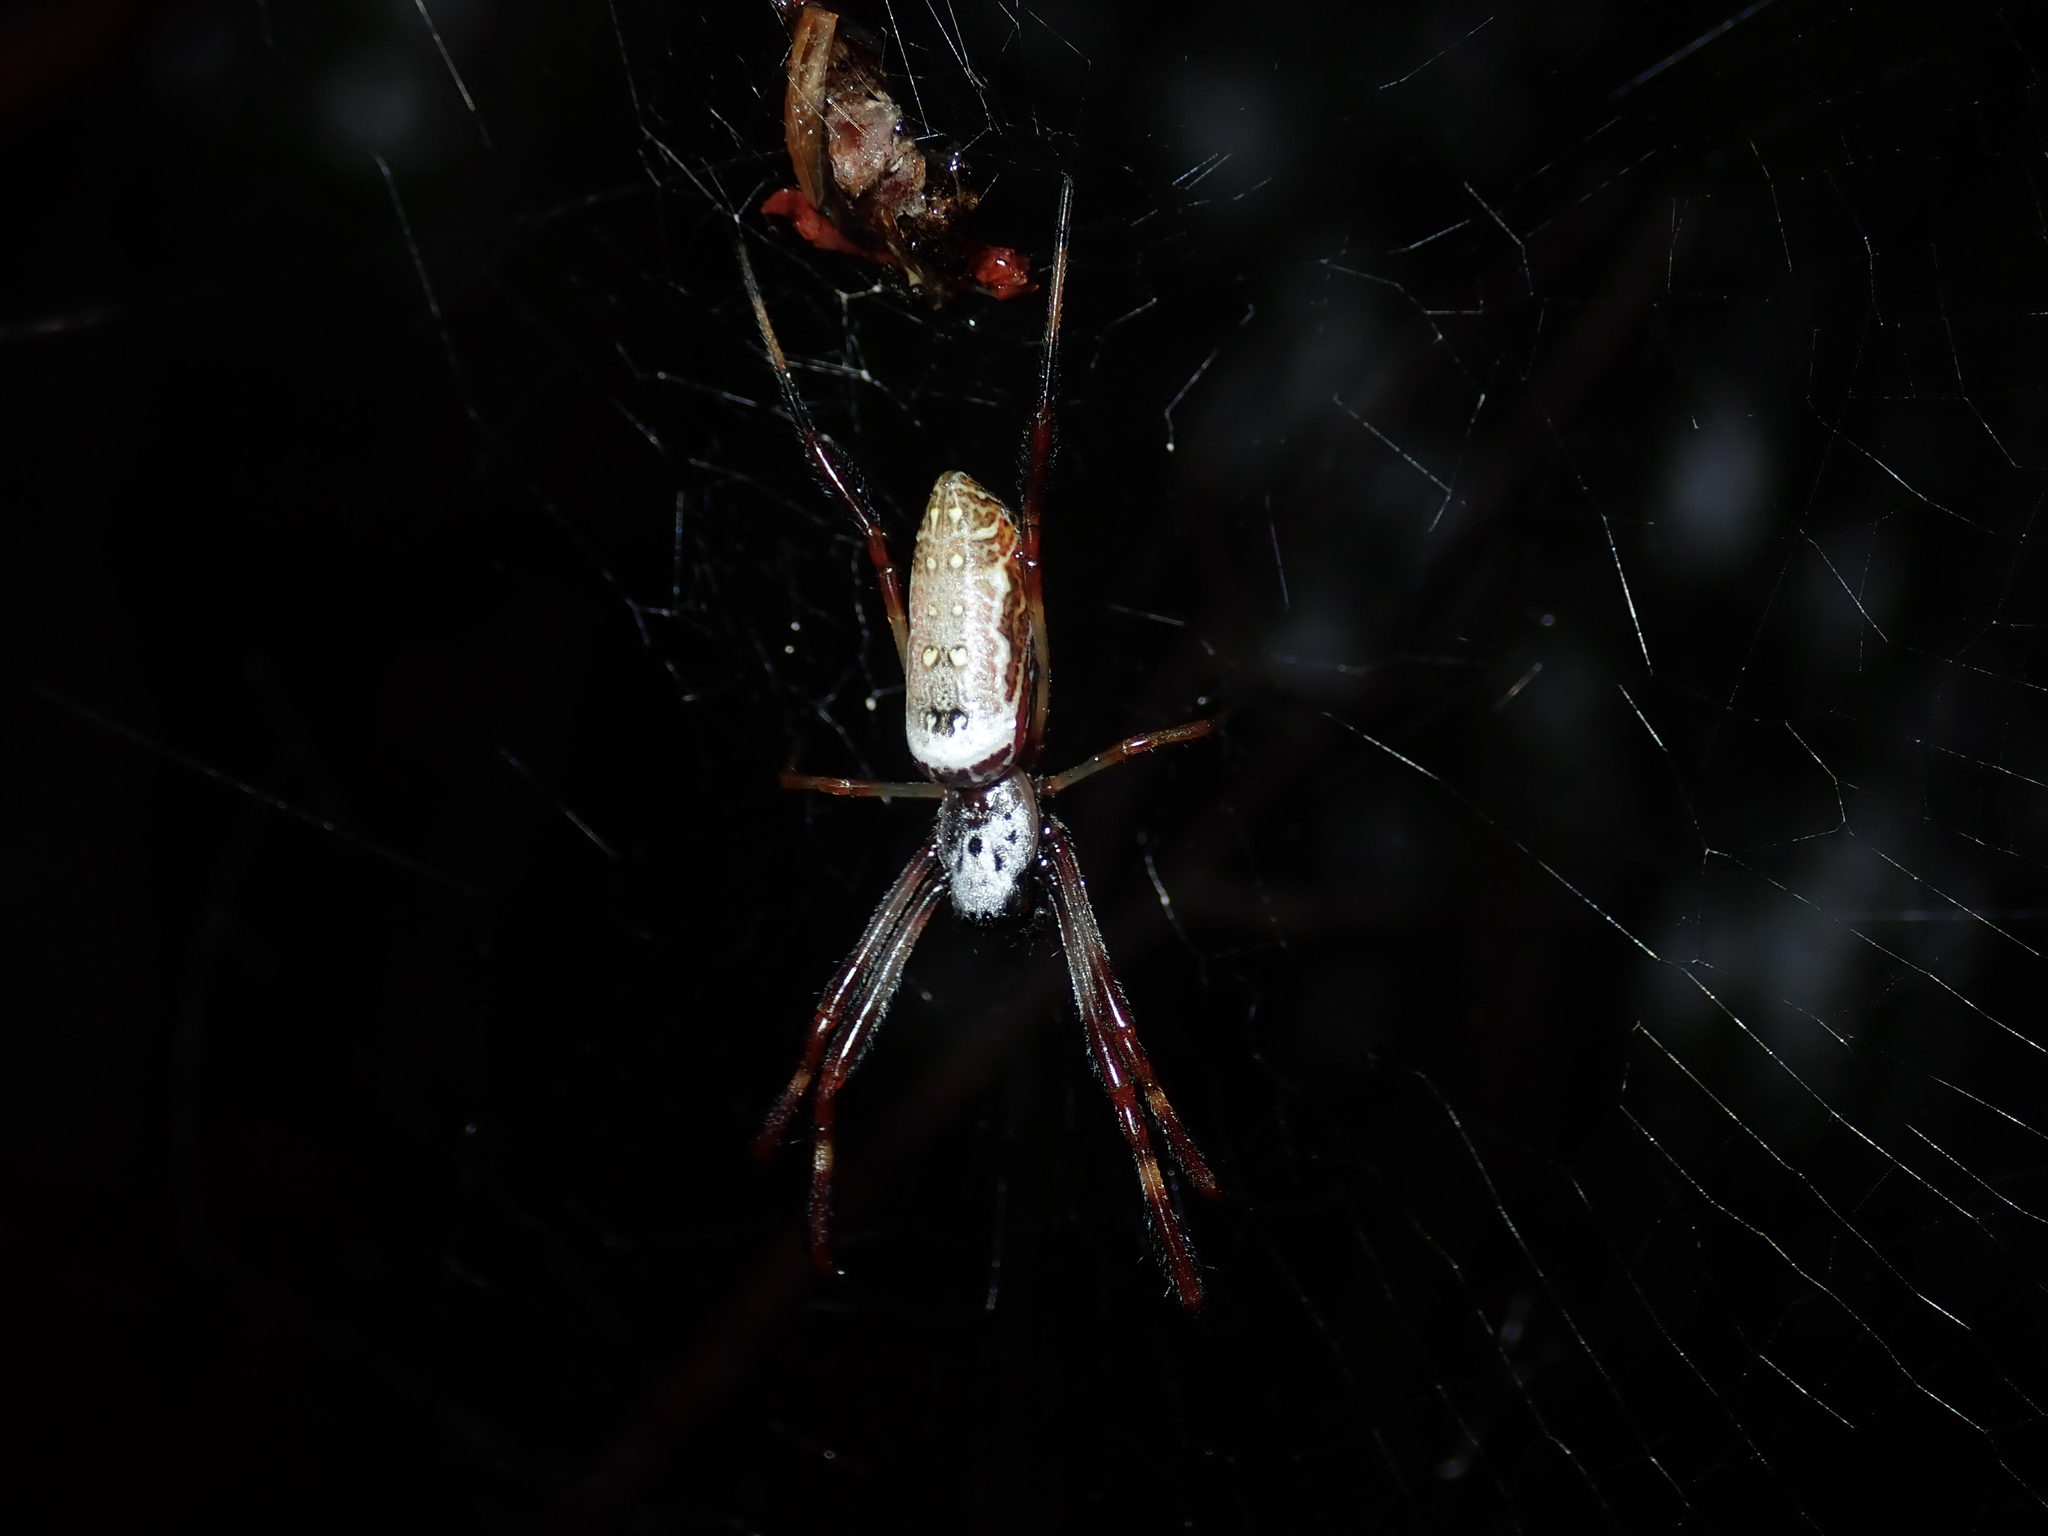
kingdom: Animalia
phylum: Arthropoda
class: Arachnida
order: Araneae
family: Araneidae
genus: Trichonephila
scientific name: Trichonephila edulis
